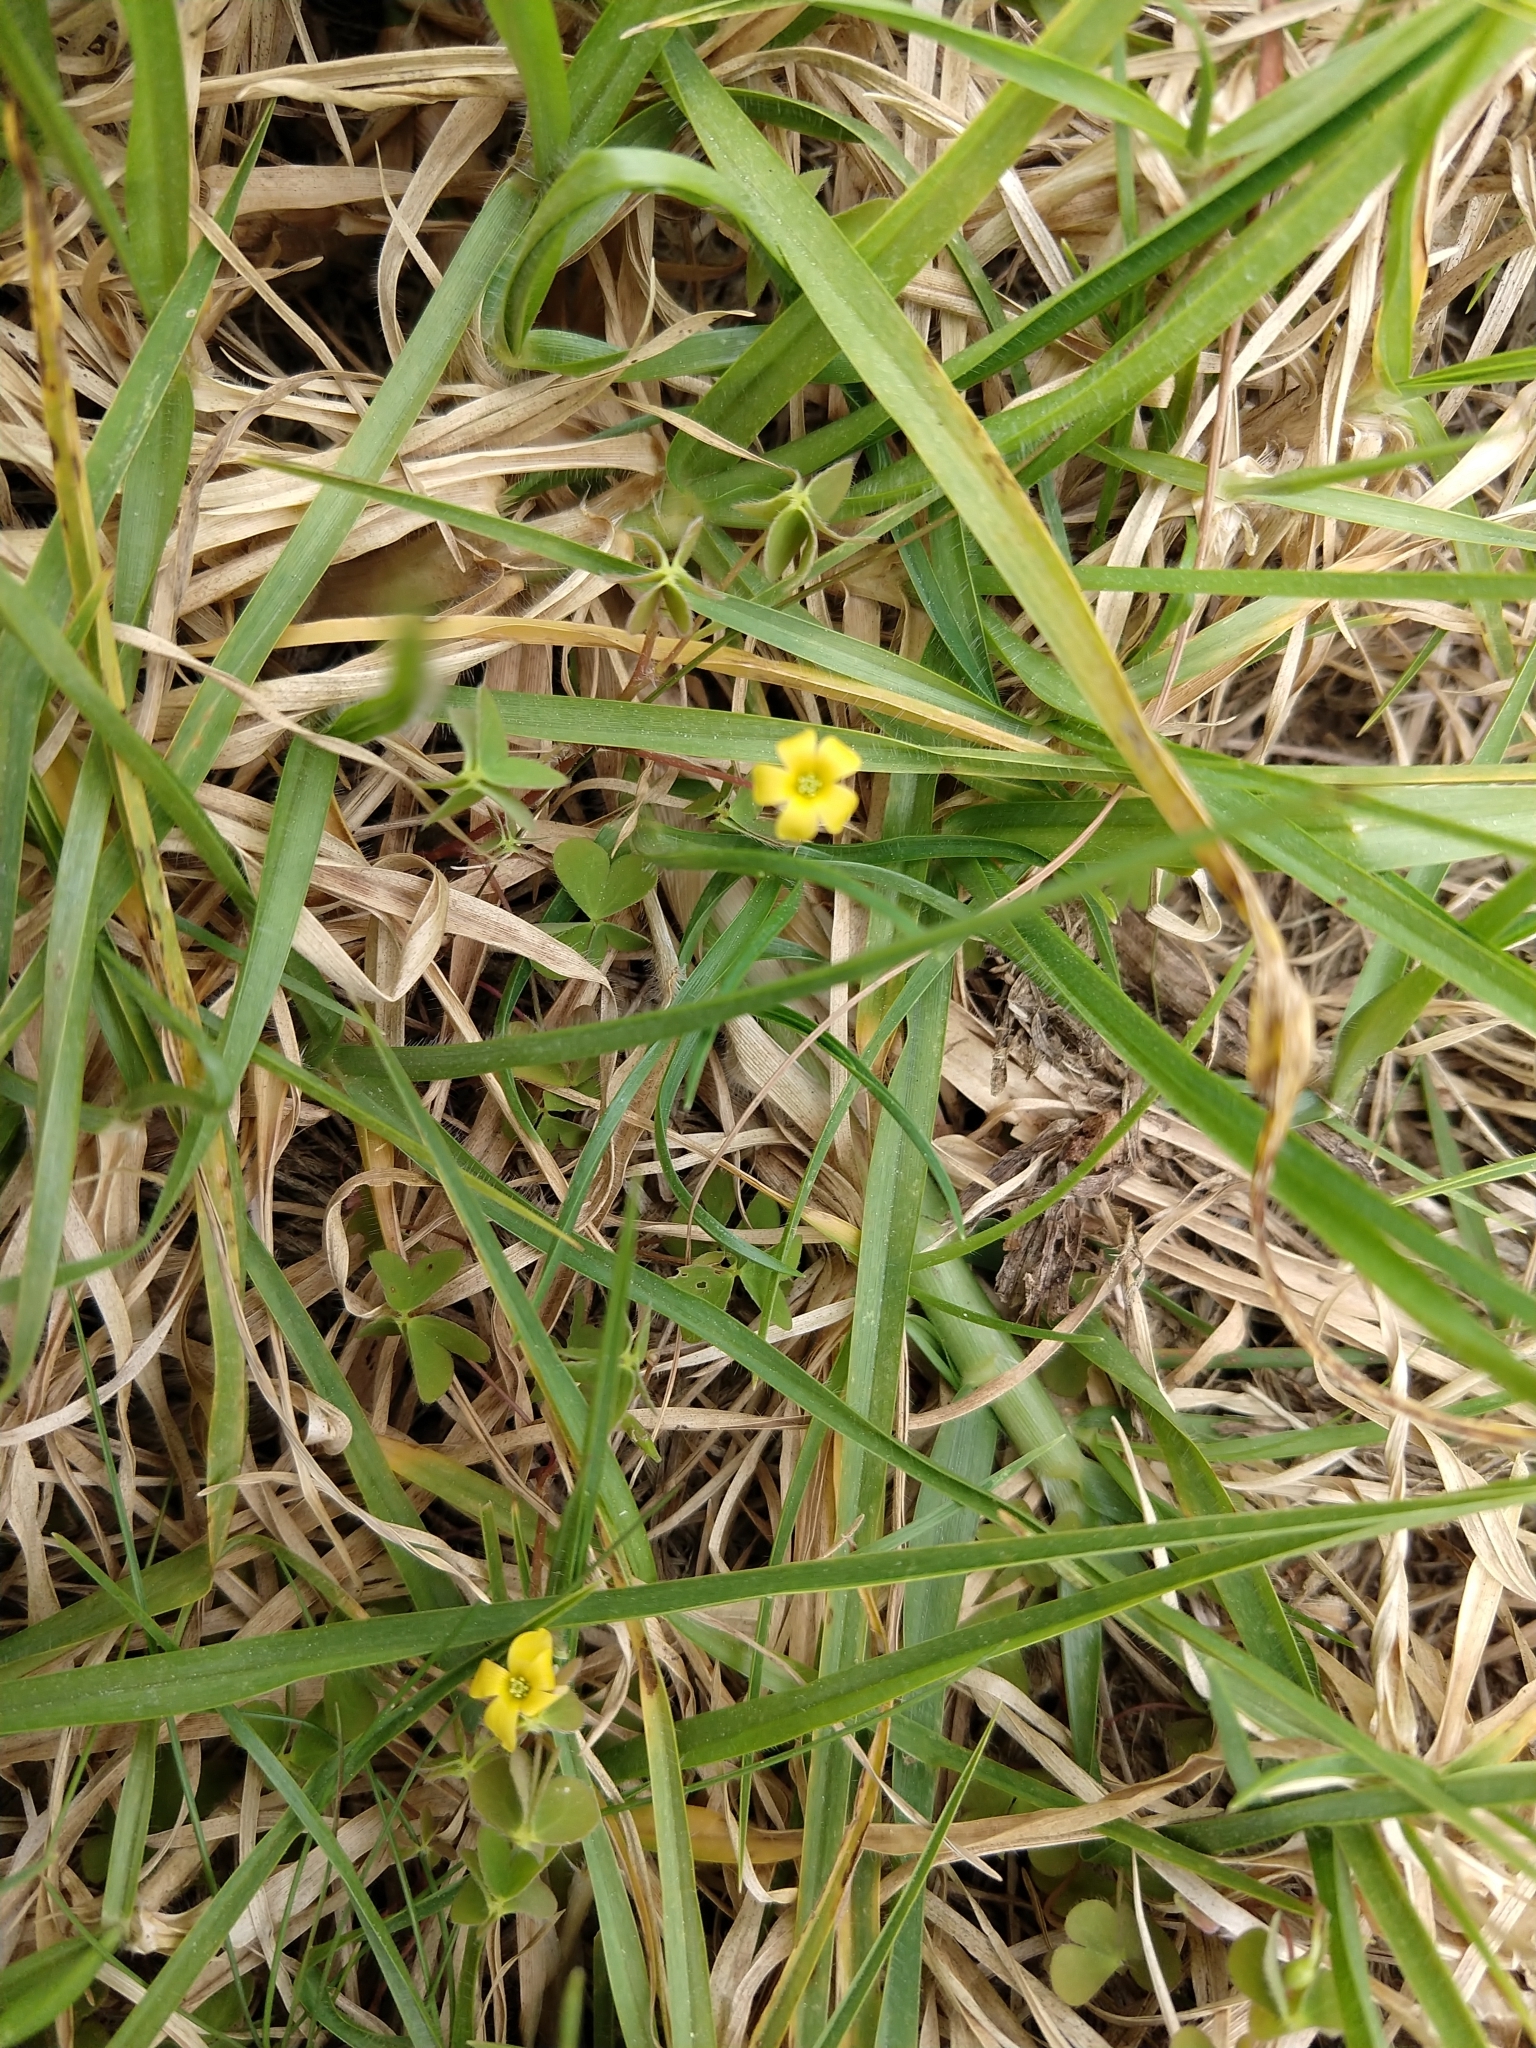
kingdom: Plantae
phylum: Tracheophyta
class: Magnoliopsida
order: Oxalidales
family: Oxalidaceae
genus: Oxalis
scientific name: Oxalis exilis
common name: Least yellow-sorrel
